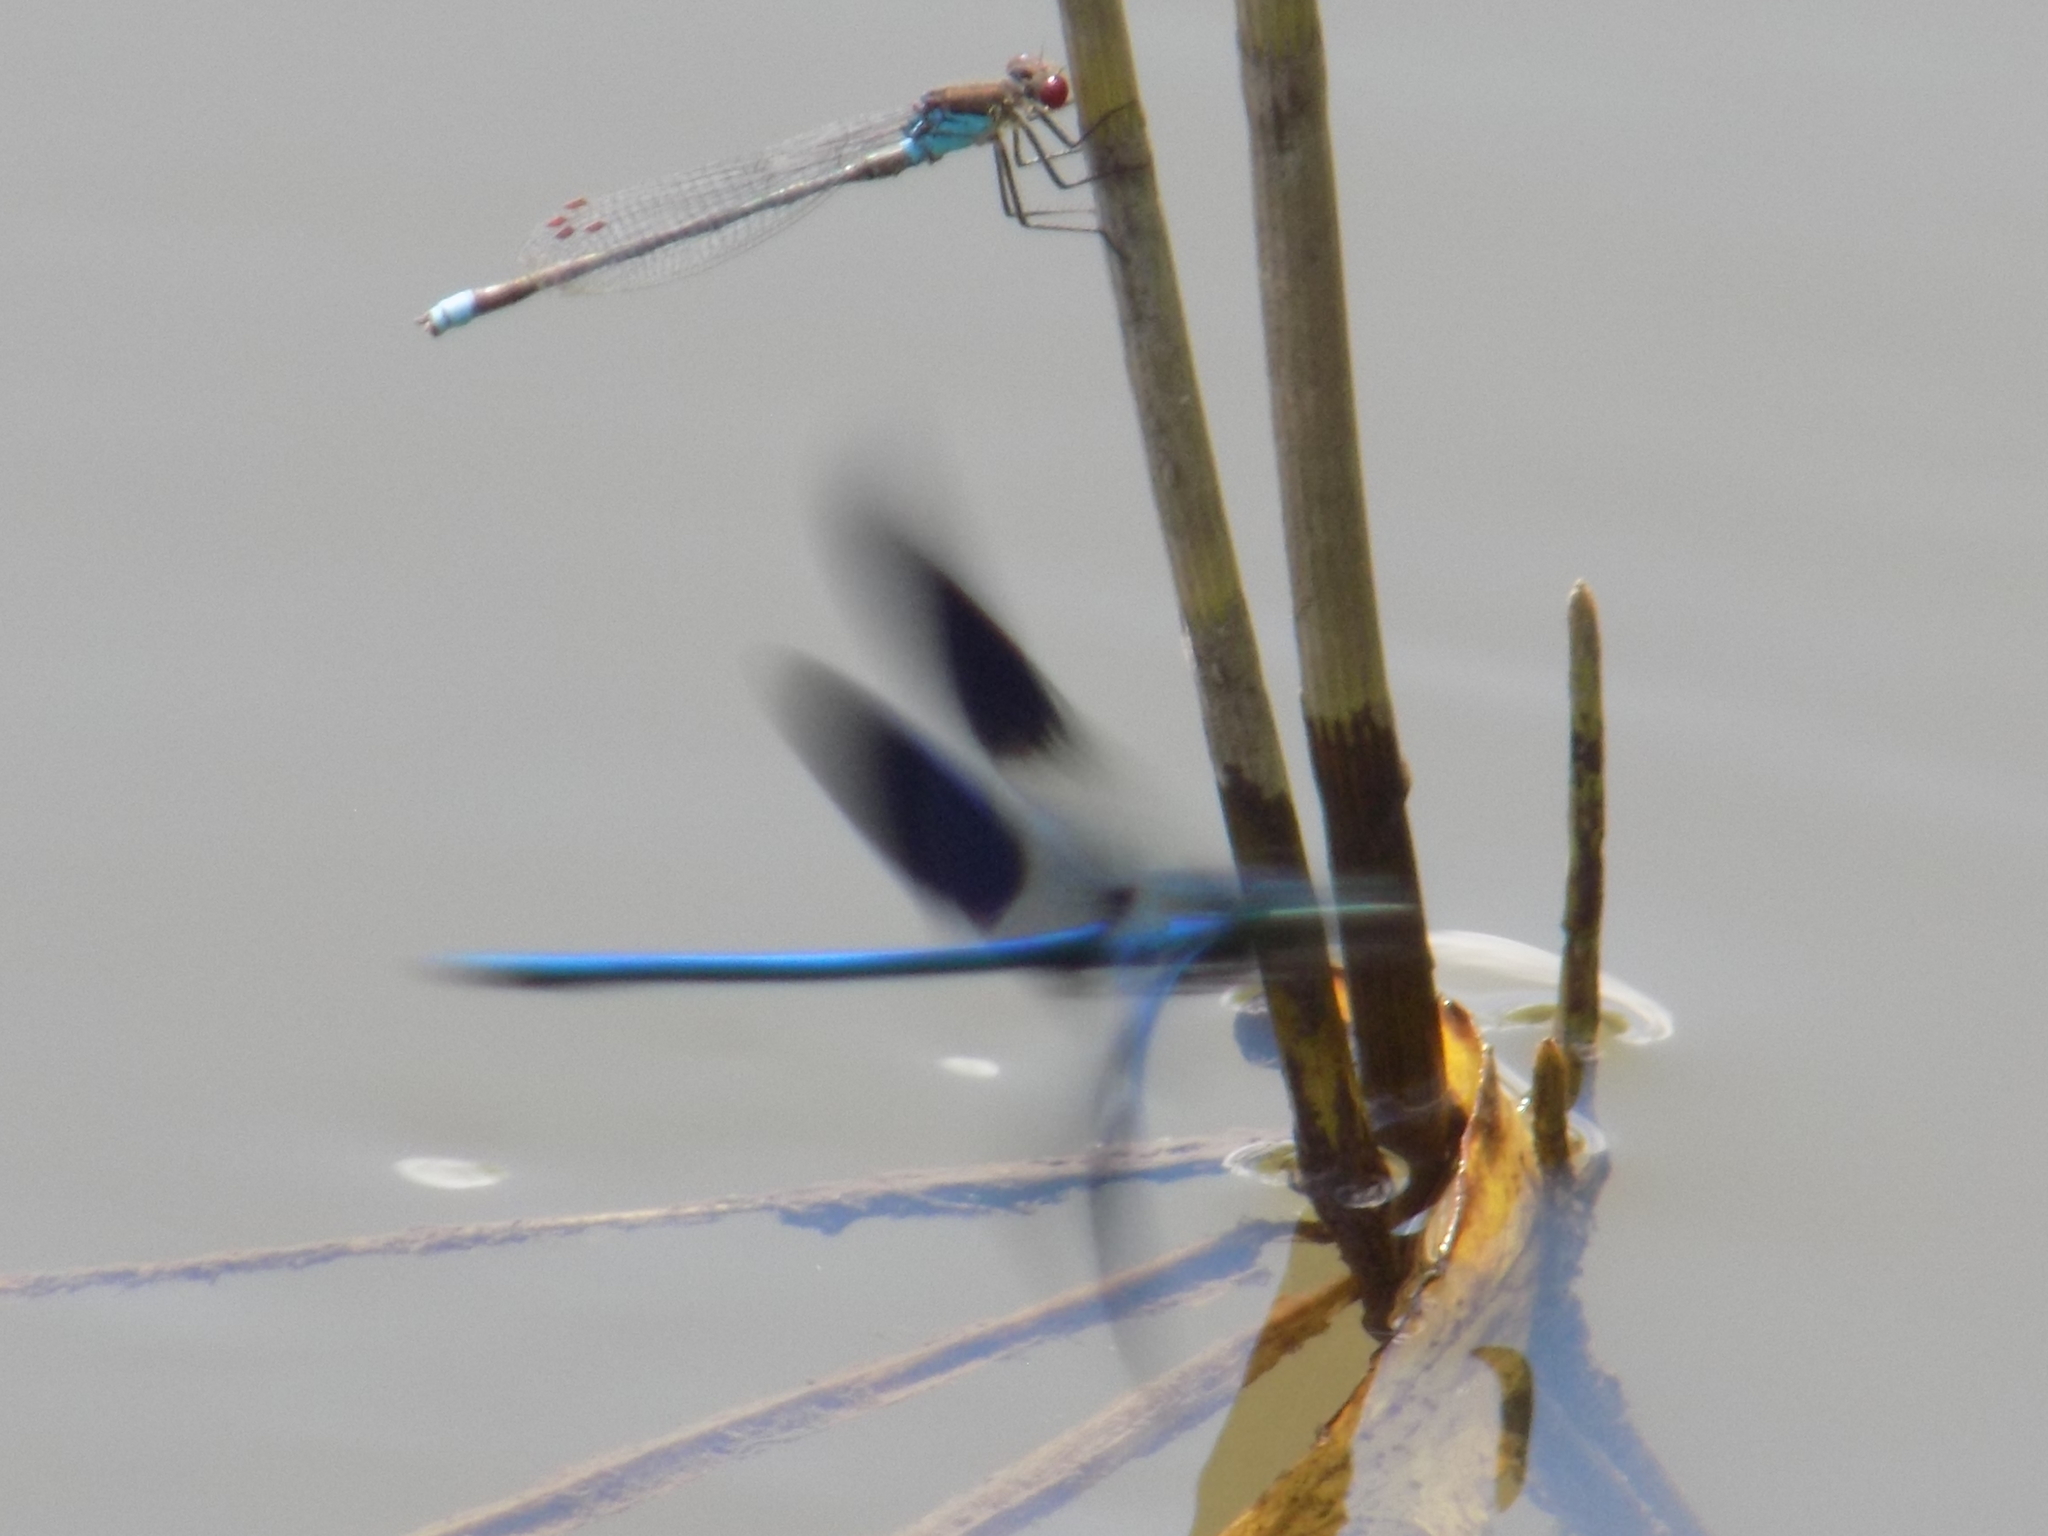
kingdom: Animalia
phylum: Arthropoda
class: Insecta
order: Odonata
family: Coenagrionidae
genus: Erythromma
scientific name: Erythromma najas
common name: Red-eyed damselfly
